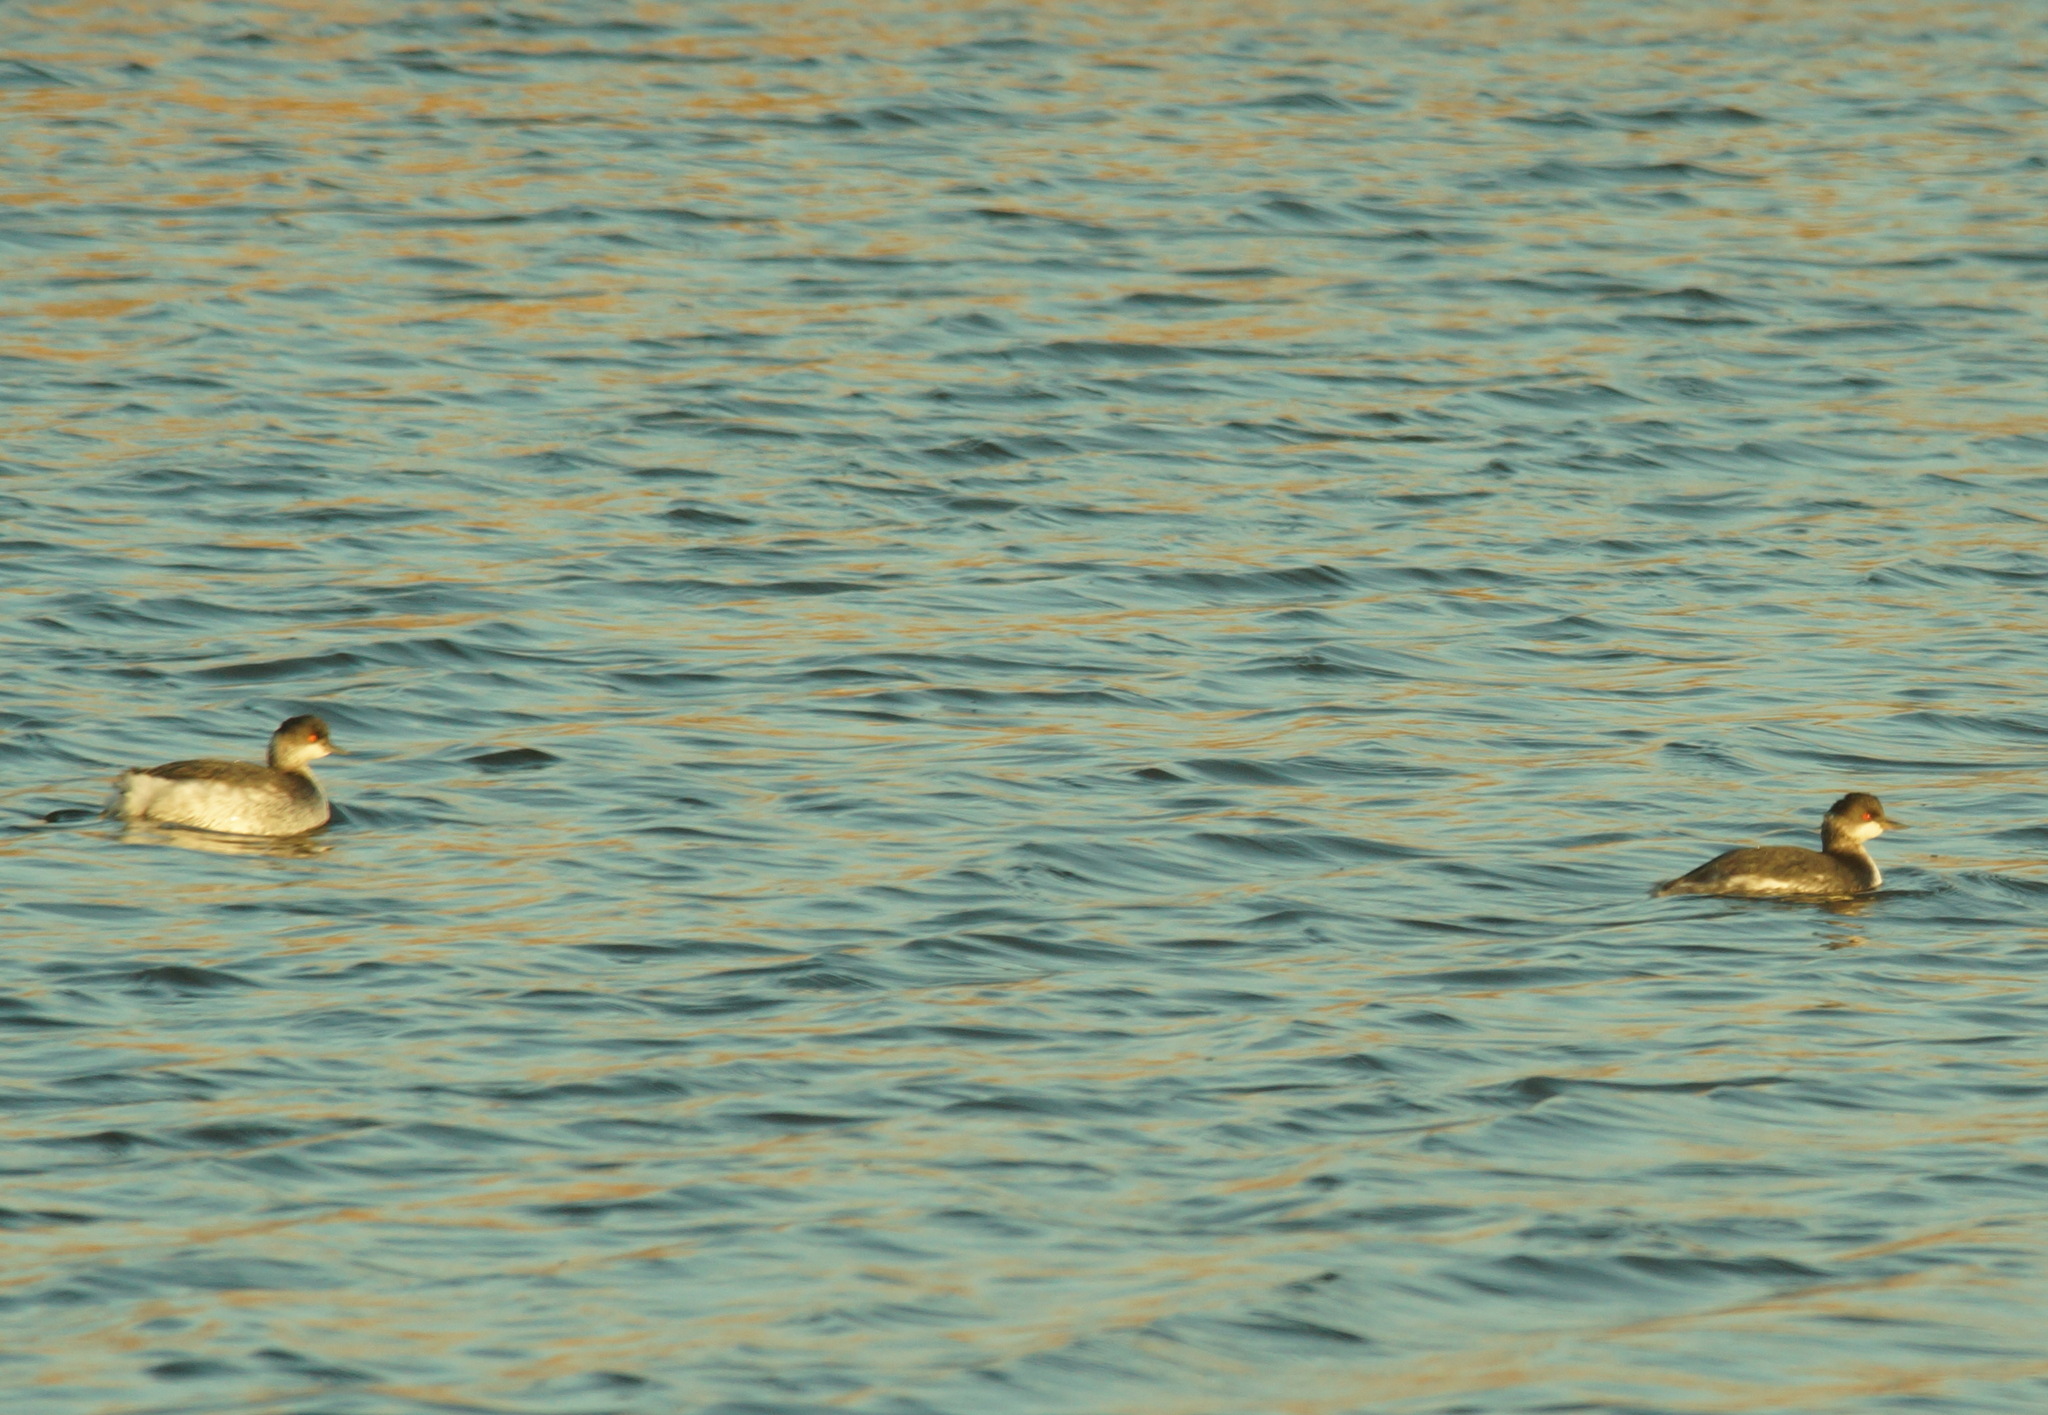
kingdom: Animalia
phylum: Chordata
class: Aves
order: Podicipediformes
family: Podicipedidae
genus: Podiceps
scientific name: Podiceps nigricollis
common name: Black-necked grebe
